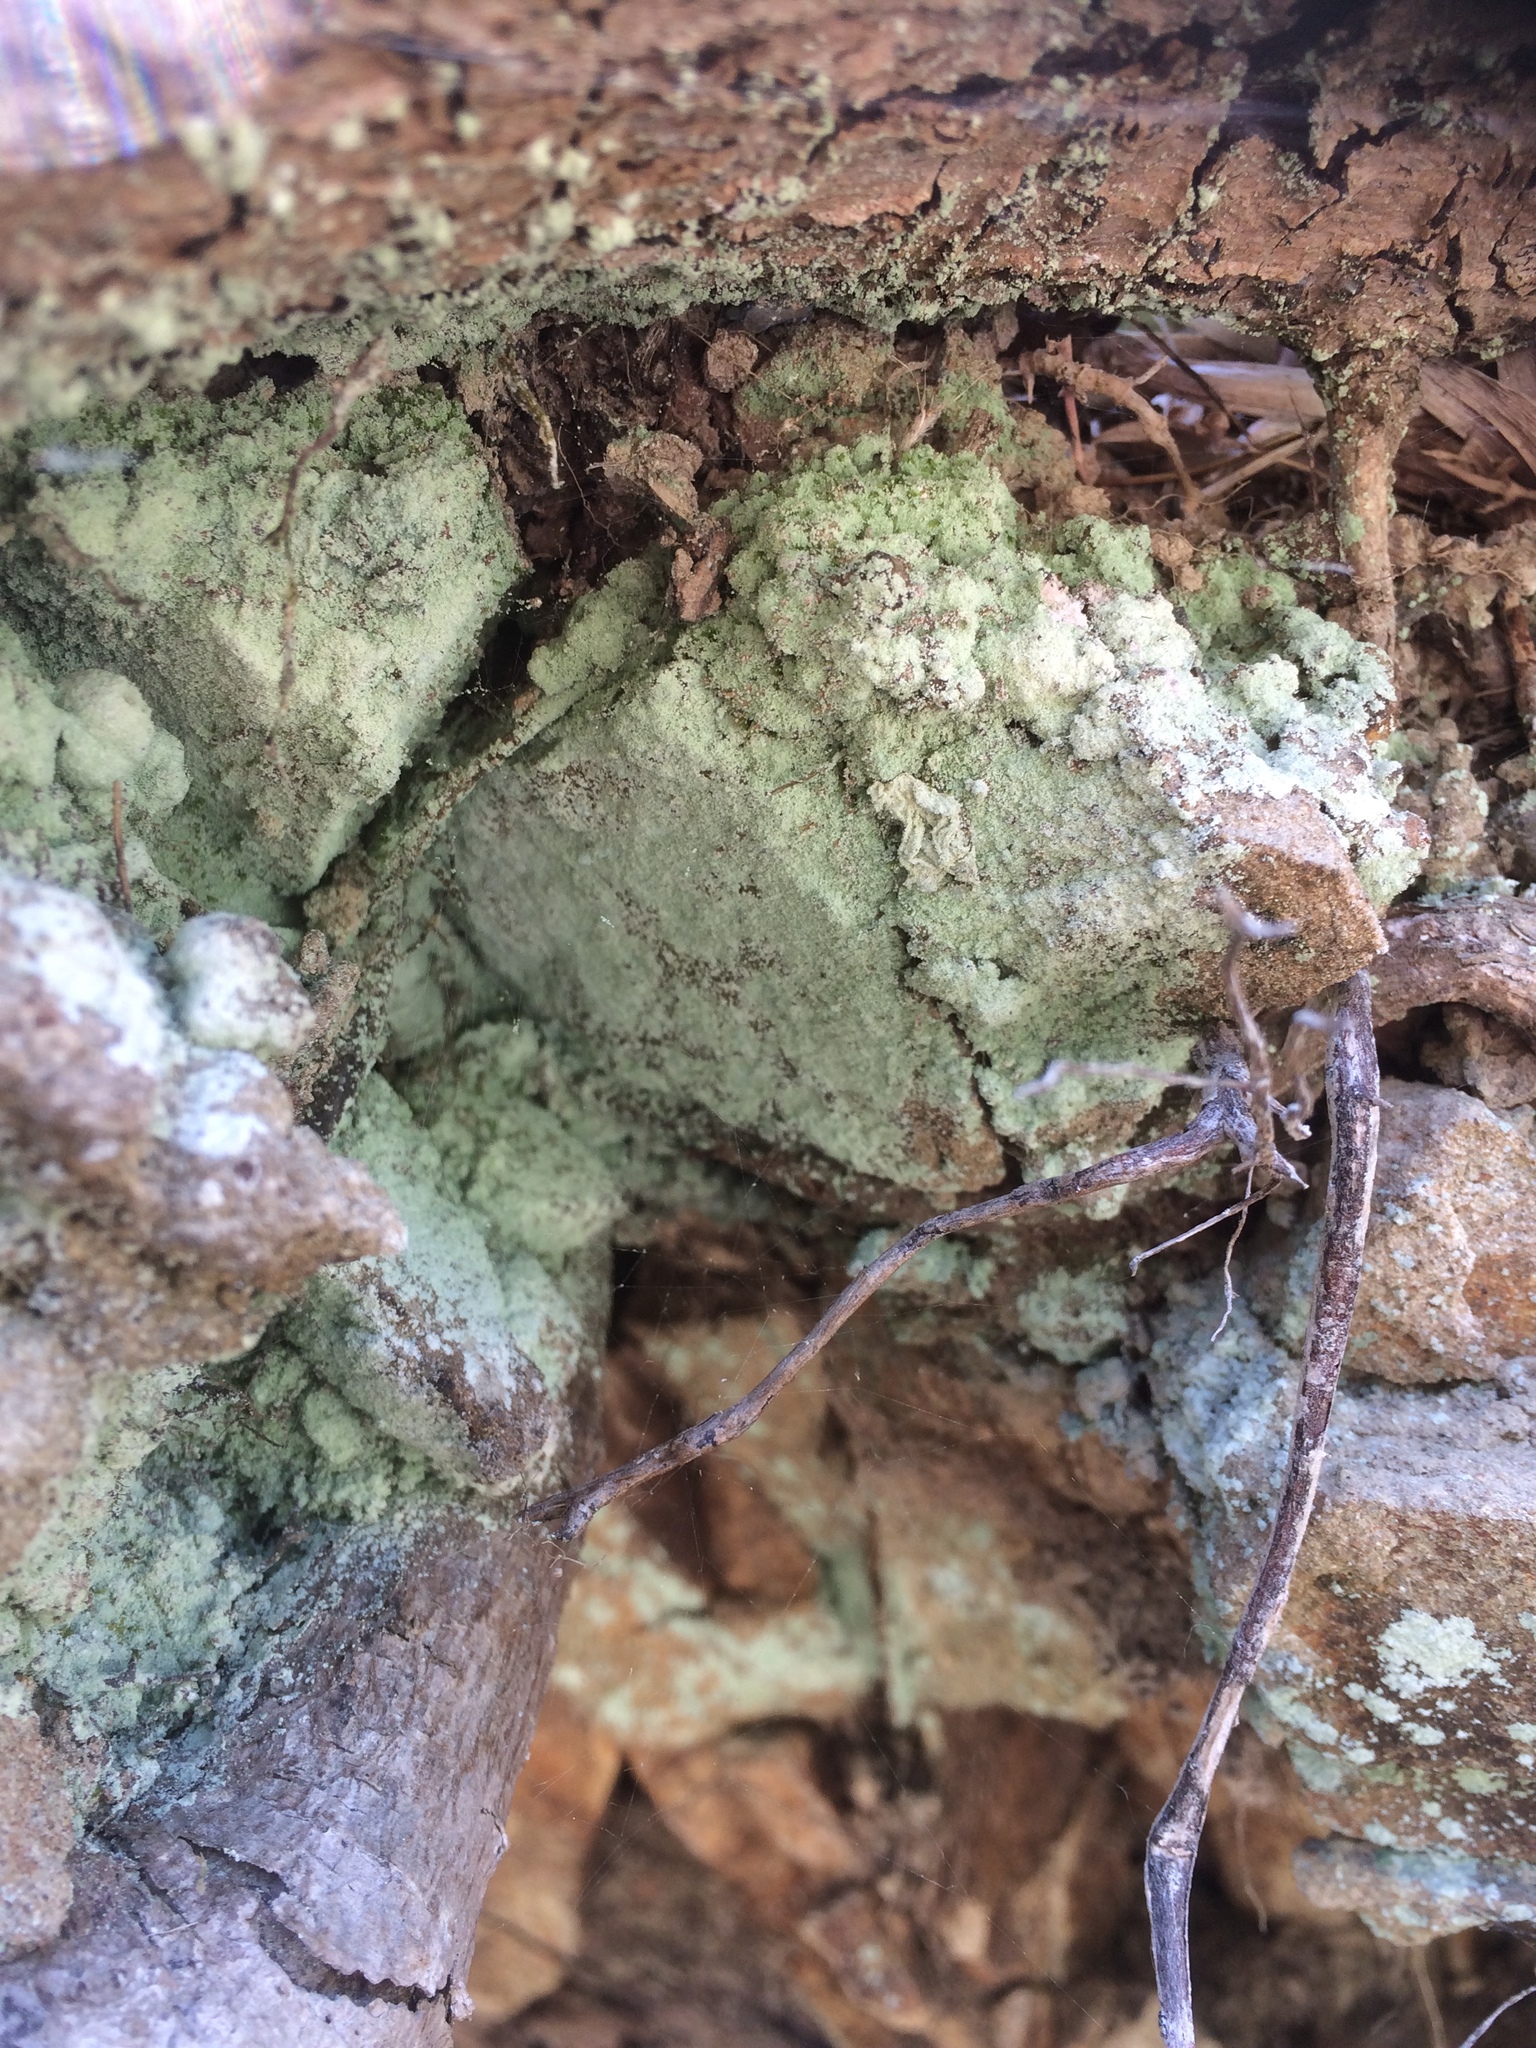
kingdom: Fungi
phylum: Ascomycota
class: Lecanoromycetes
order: Lecanorales
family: Stereocaulaceae
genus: Lepraria
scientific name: Lepraria lobificans
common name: Fluffy dust lichen
